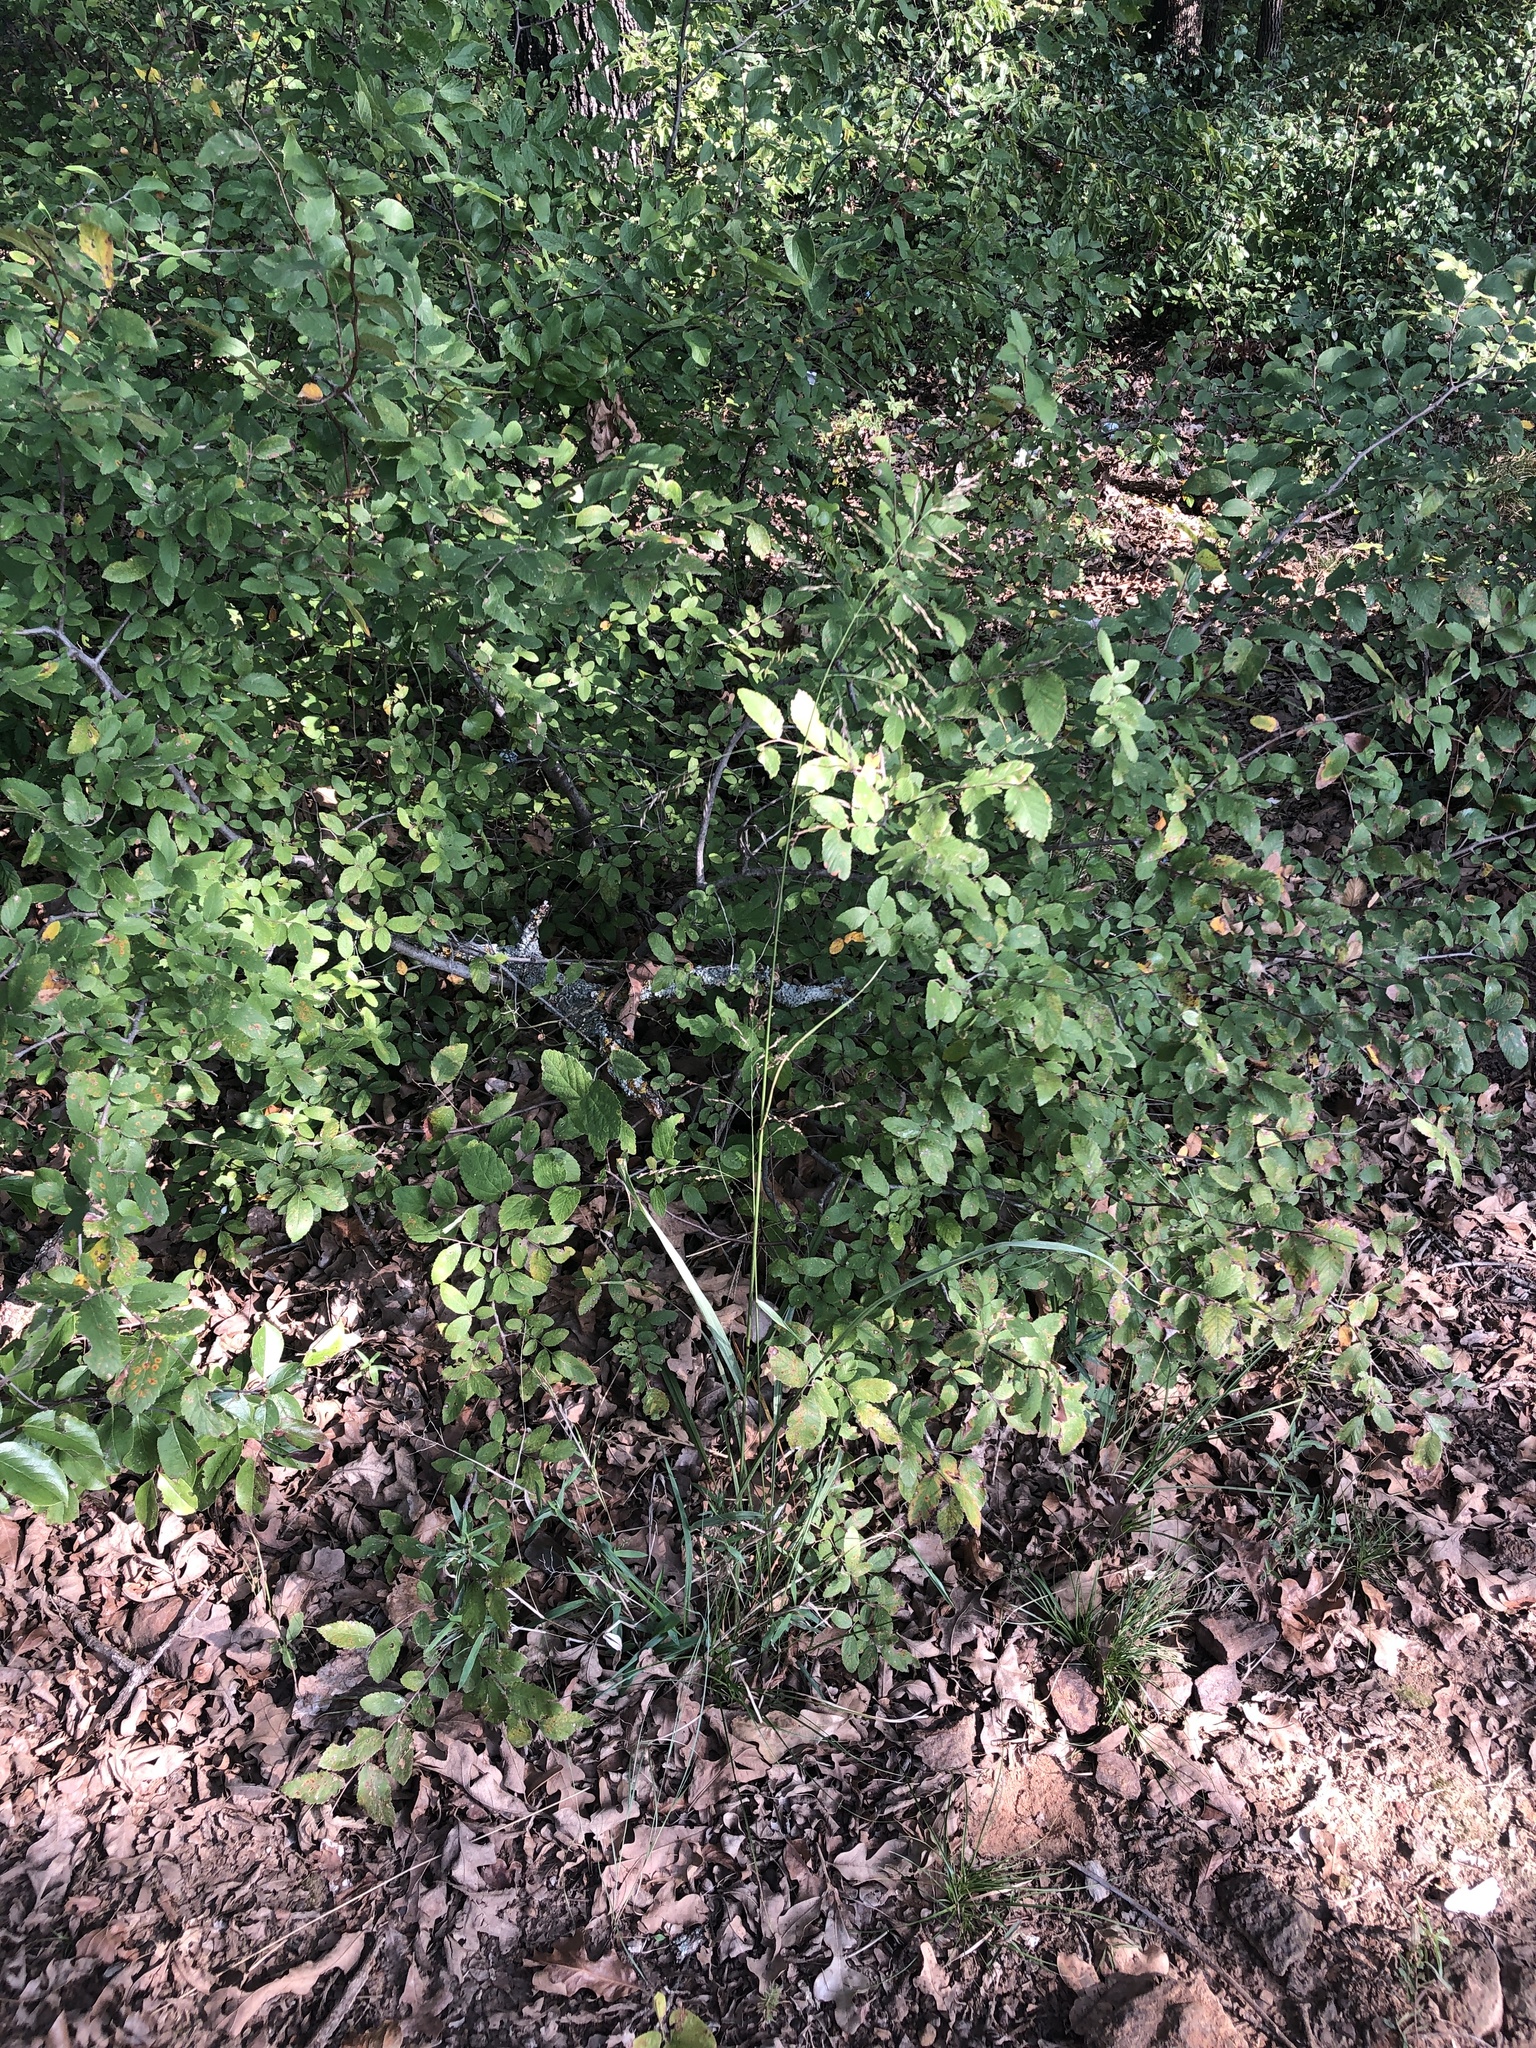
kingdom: Plantae
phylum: Tracheophyta
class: Liliopsida
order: Poales
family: Poaceae
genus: Tridens
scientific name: Tridens flavus
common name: Purpletop
